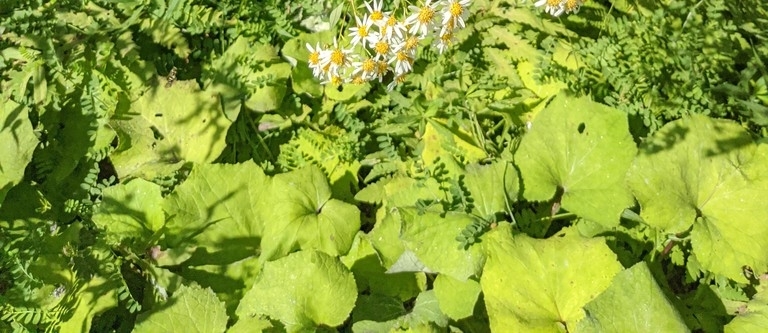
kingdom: Plantae
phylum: Tracheophyta
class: Magnoliopsida
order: Asterales
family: Asteraceae
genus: Tussilago
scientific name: Tussilago farfara
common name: Coltsfoot
